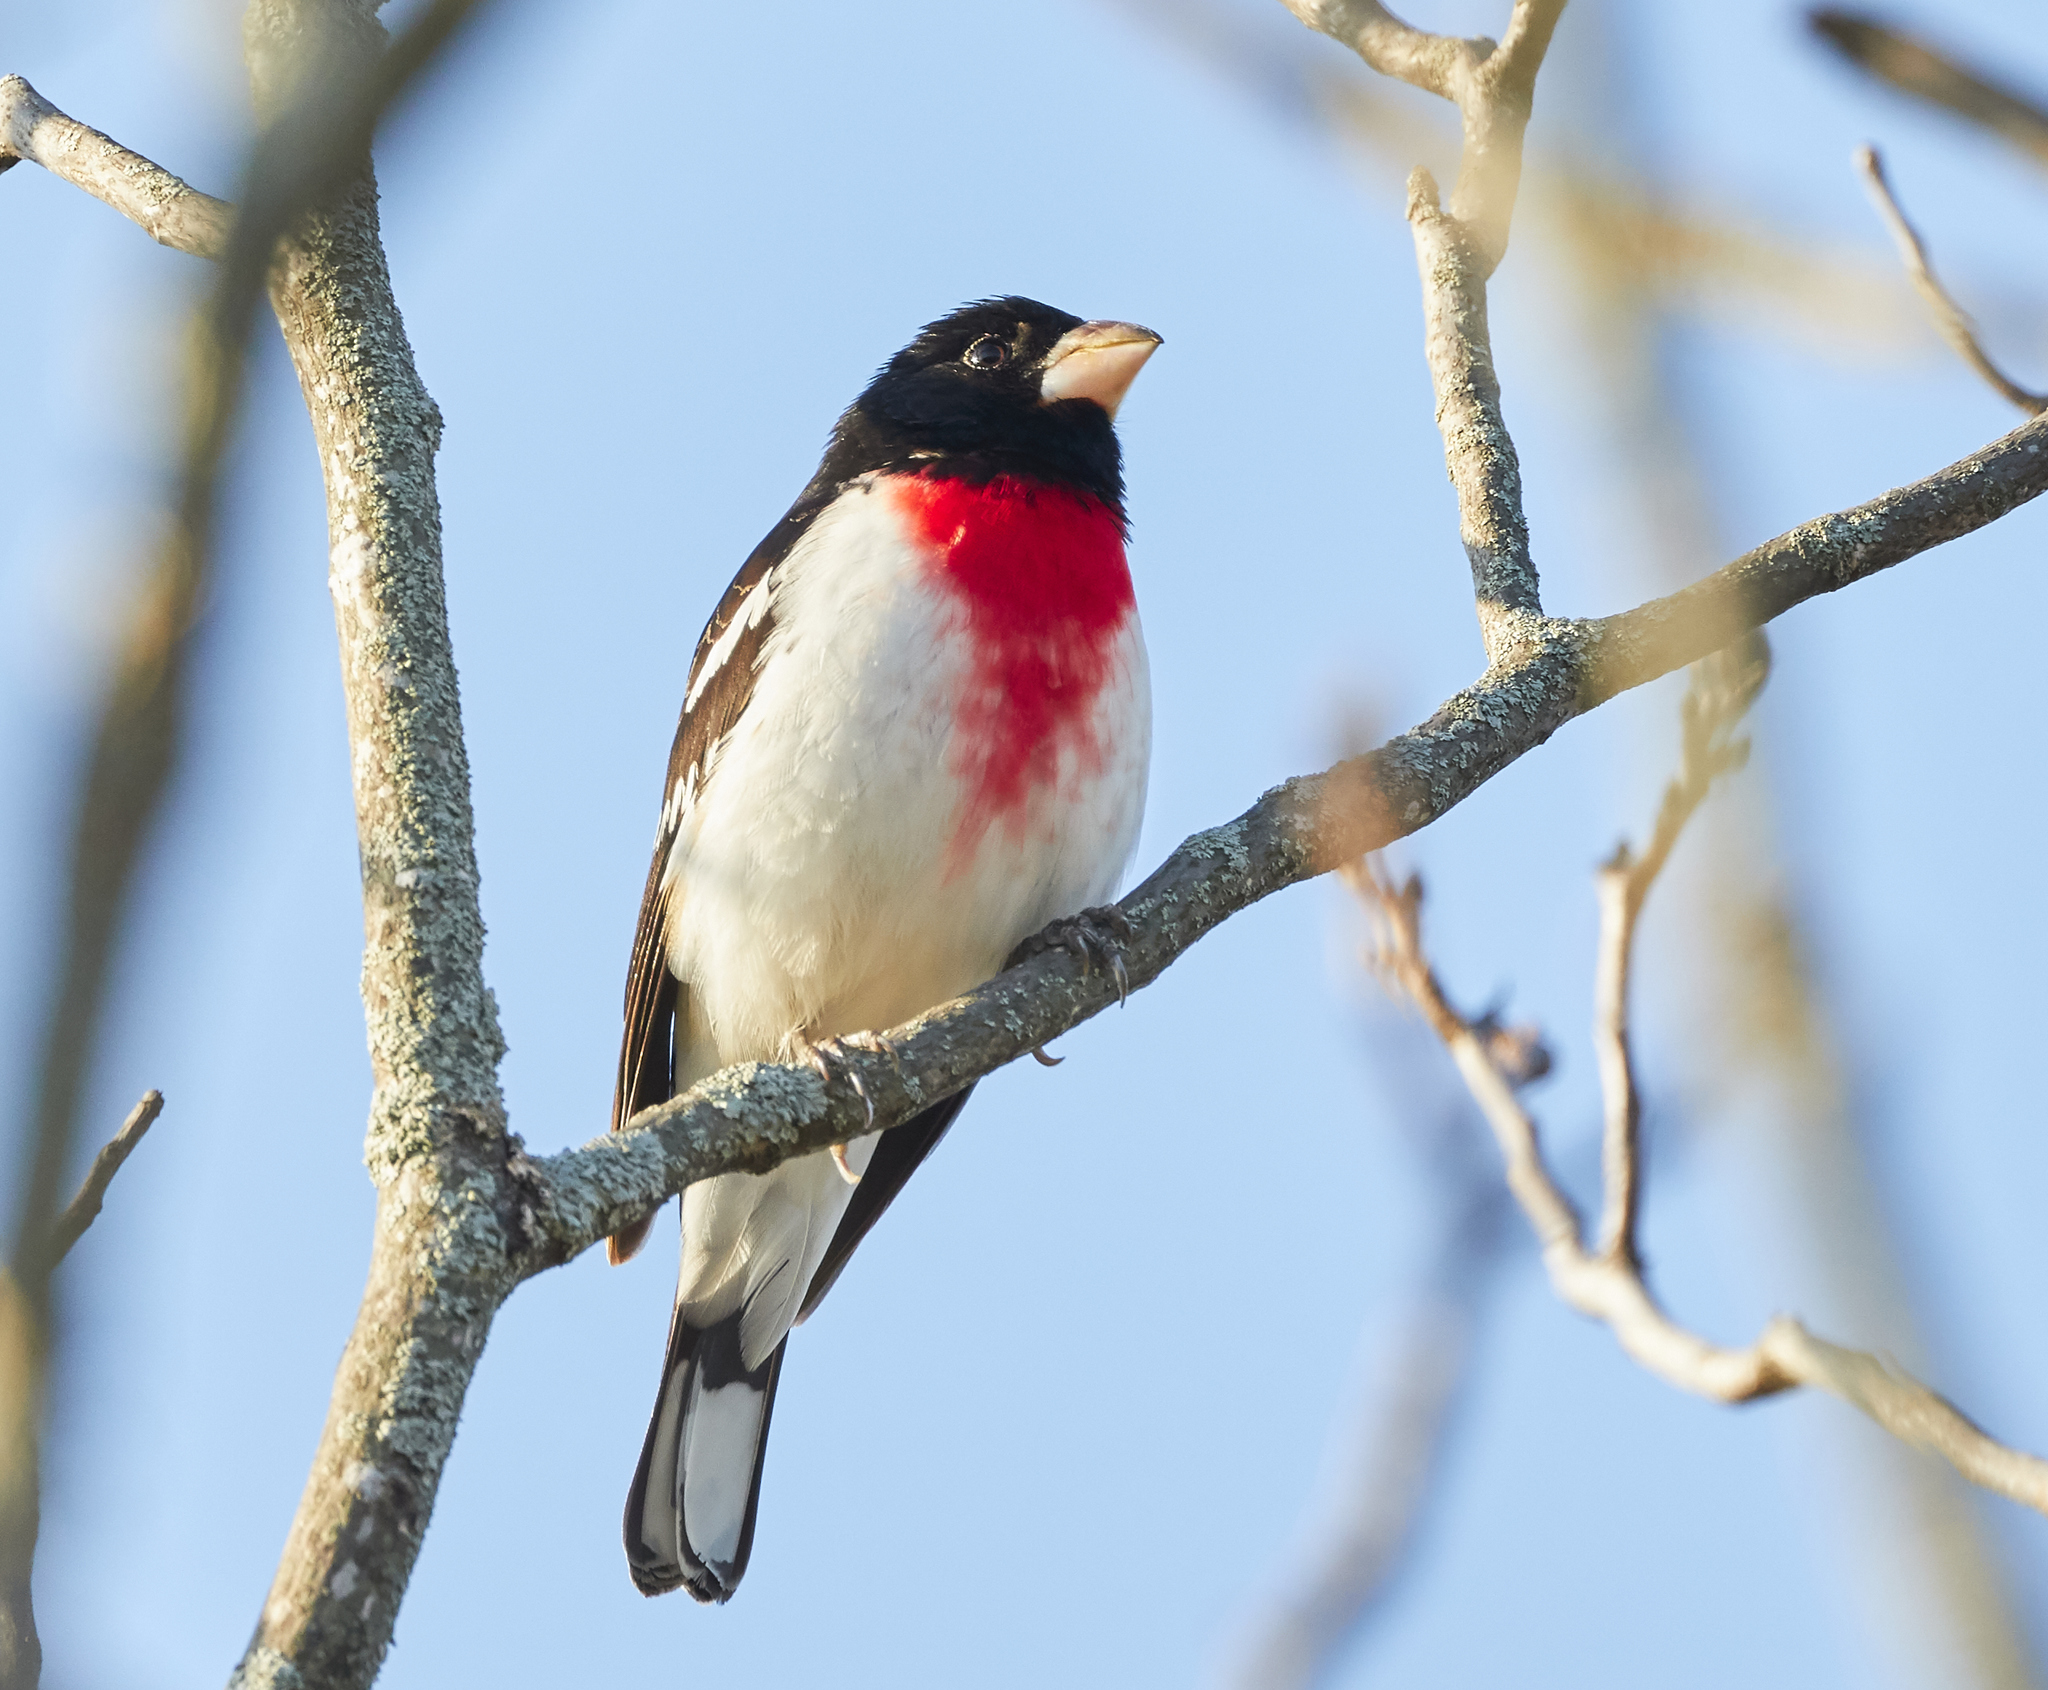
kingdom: Animalia
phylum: Chordata
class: Aves
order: Passeriformes
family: Cardinalidae
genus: Pheucticus
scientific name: Pheucticus ludovicianus
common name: Rose-breasted grosbeak
